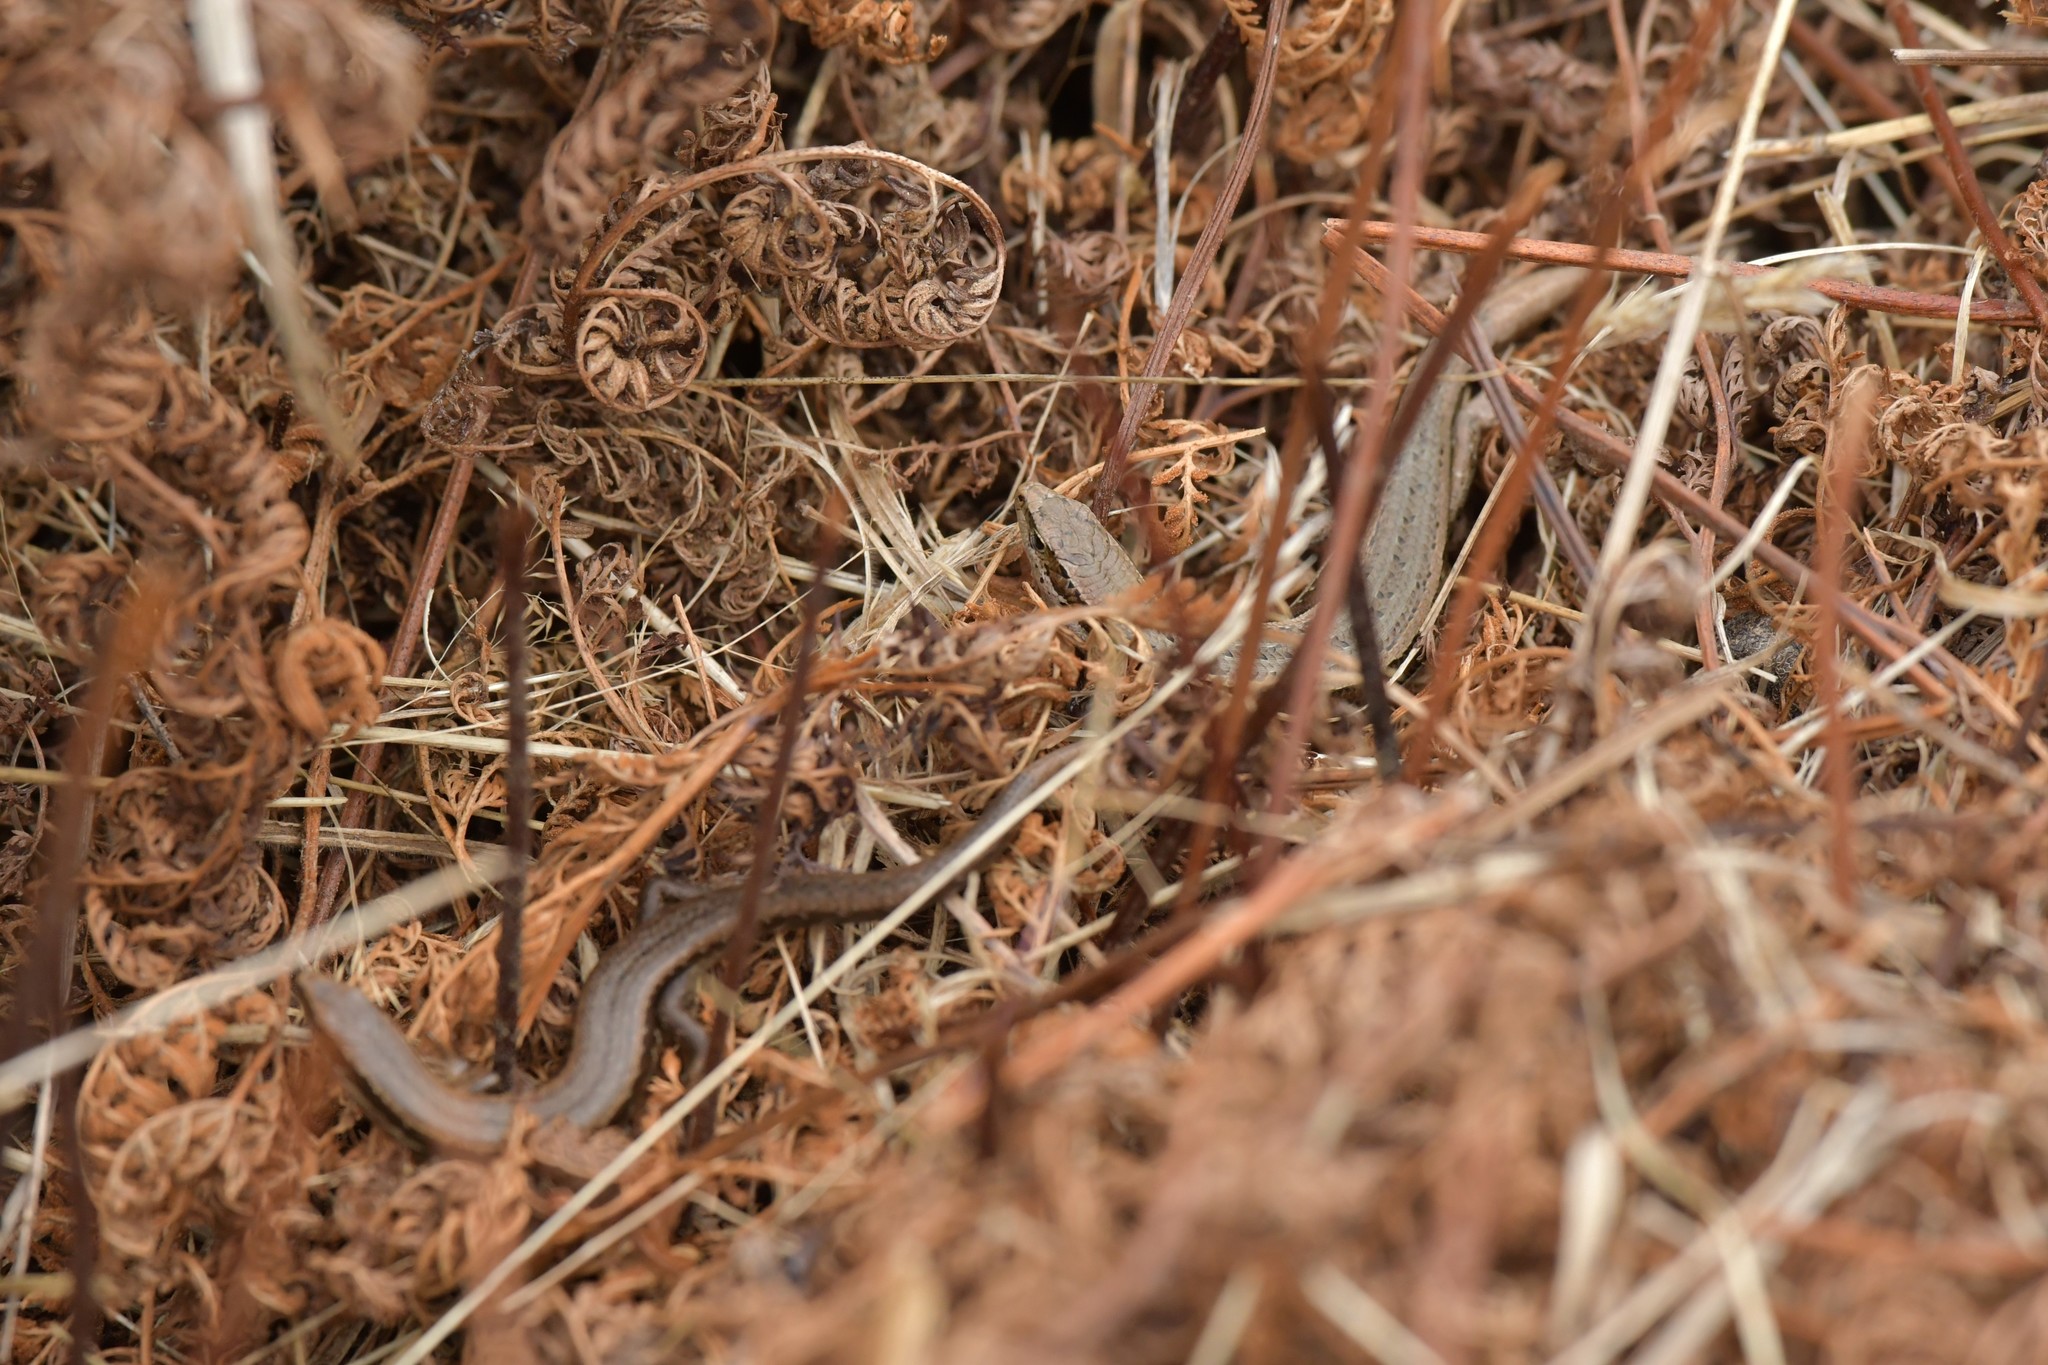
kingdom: Animalia
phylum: Chordata
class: Squamata
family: Scincidae
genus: Oligosoma
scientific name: Oligosoma polychroma
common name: Common new zealand skink
